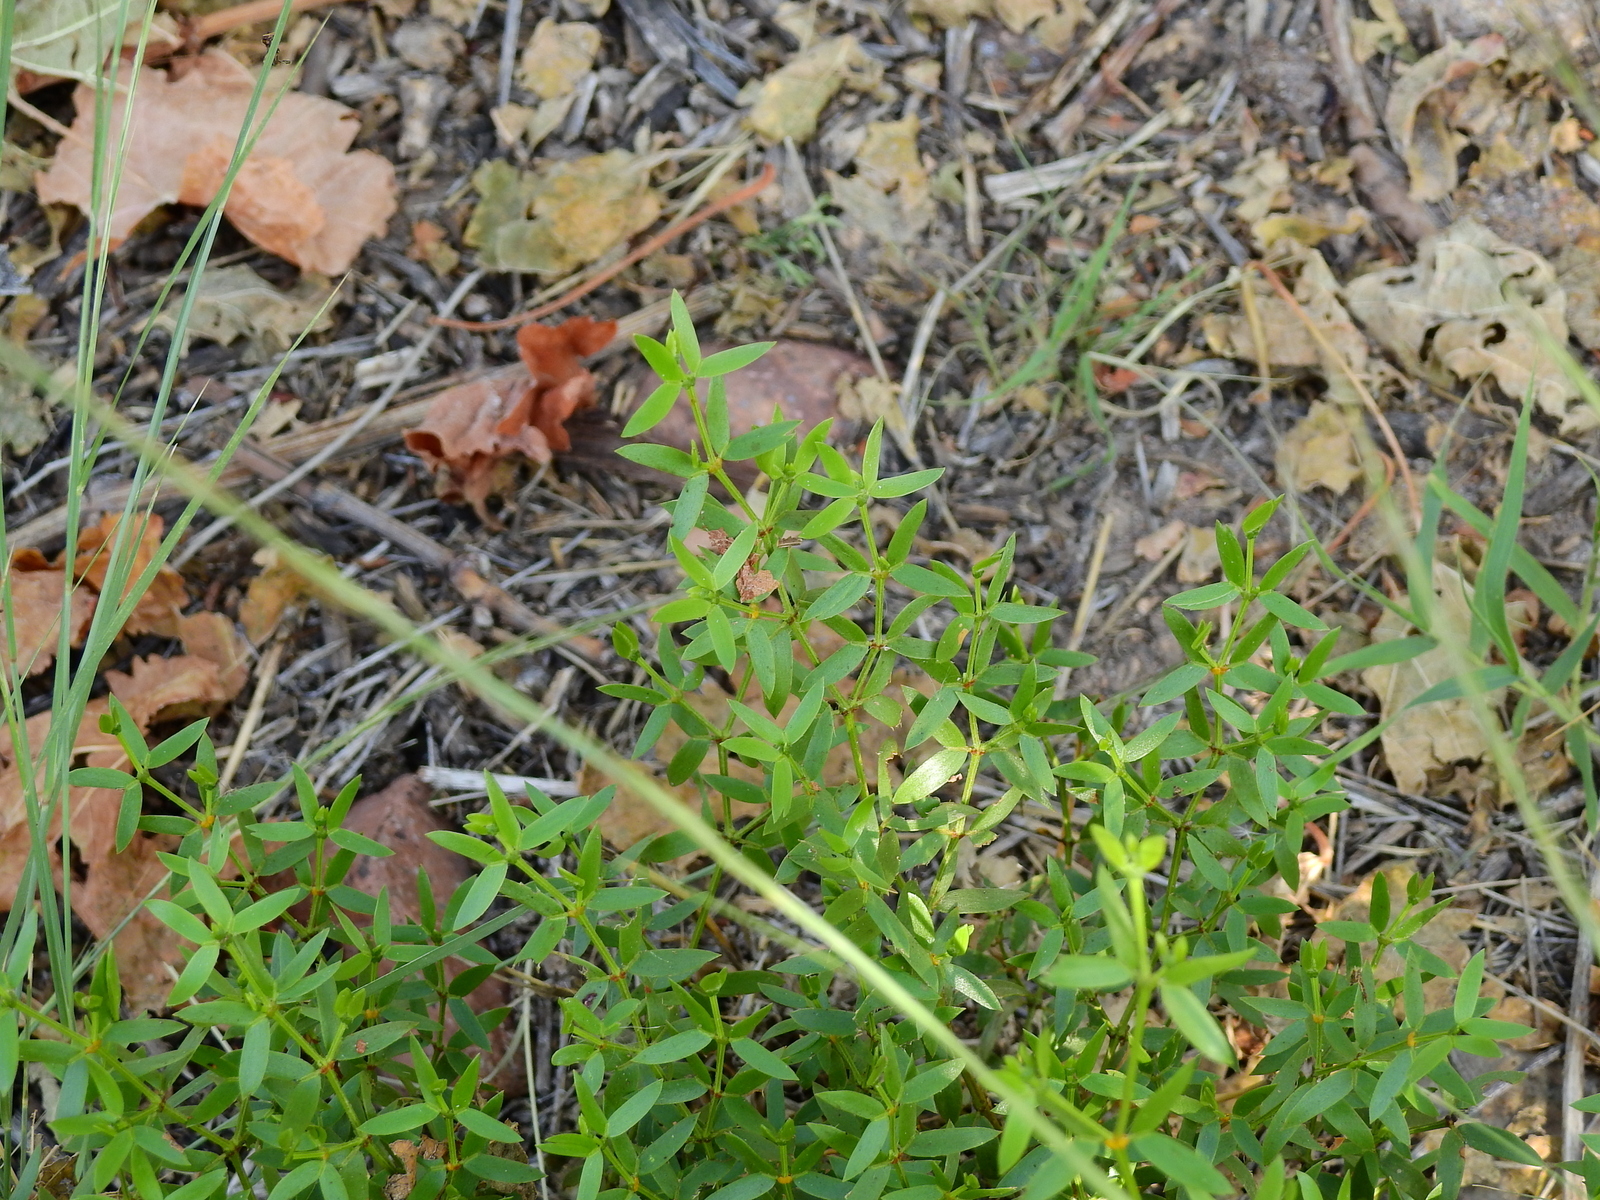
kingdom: Plantae
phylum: Tracheophyta
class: Magnoliopsida
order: Zygophyllales
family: Zygophyllaceae
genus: Larrea
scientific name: Larrea divaricata
